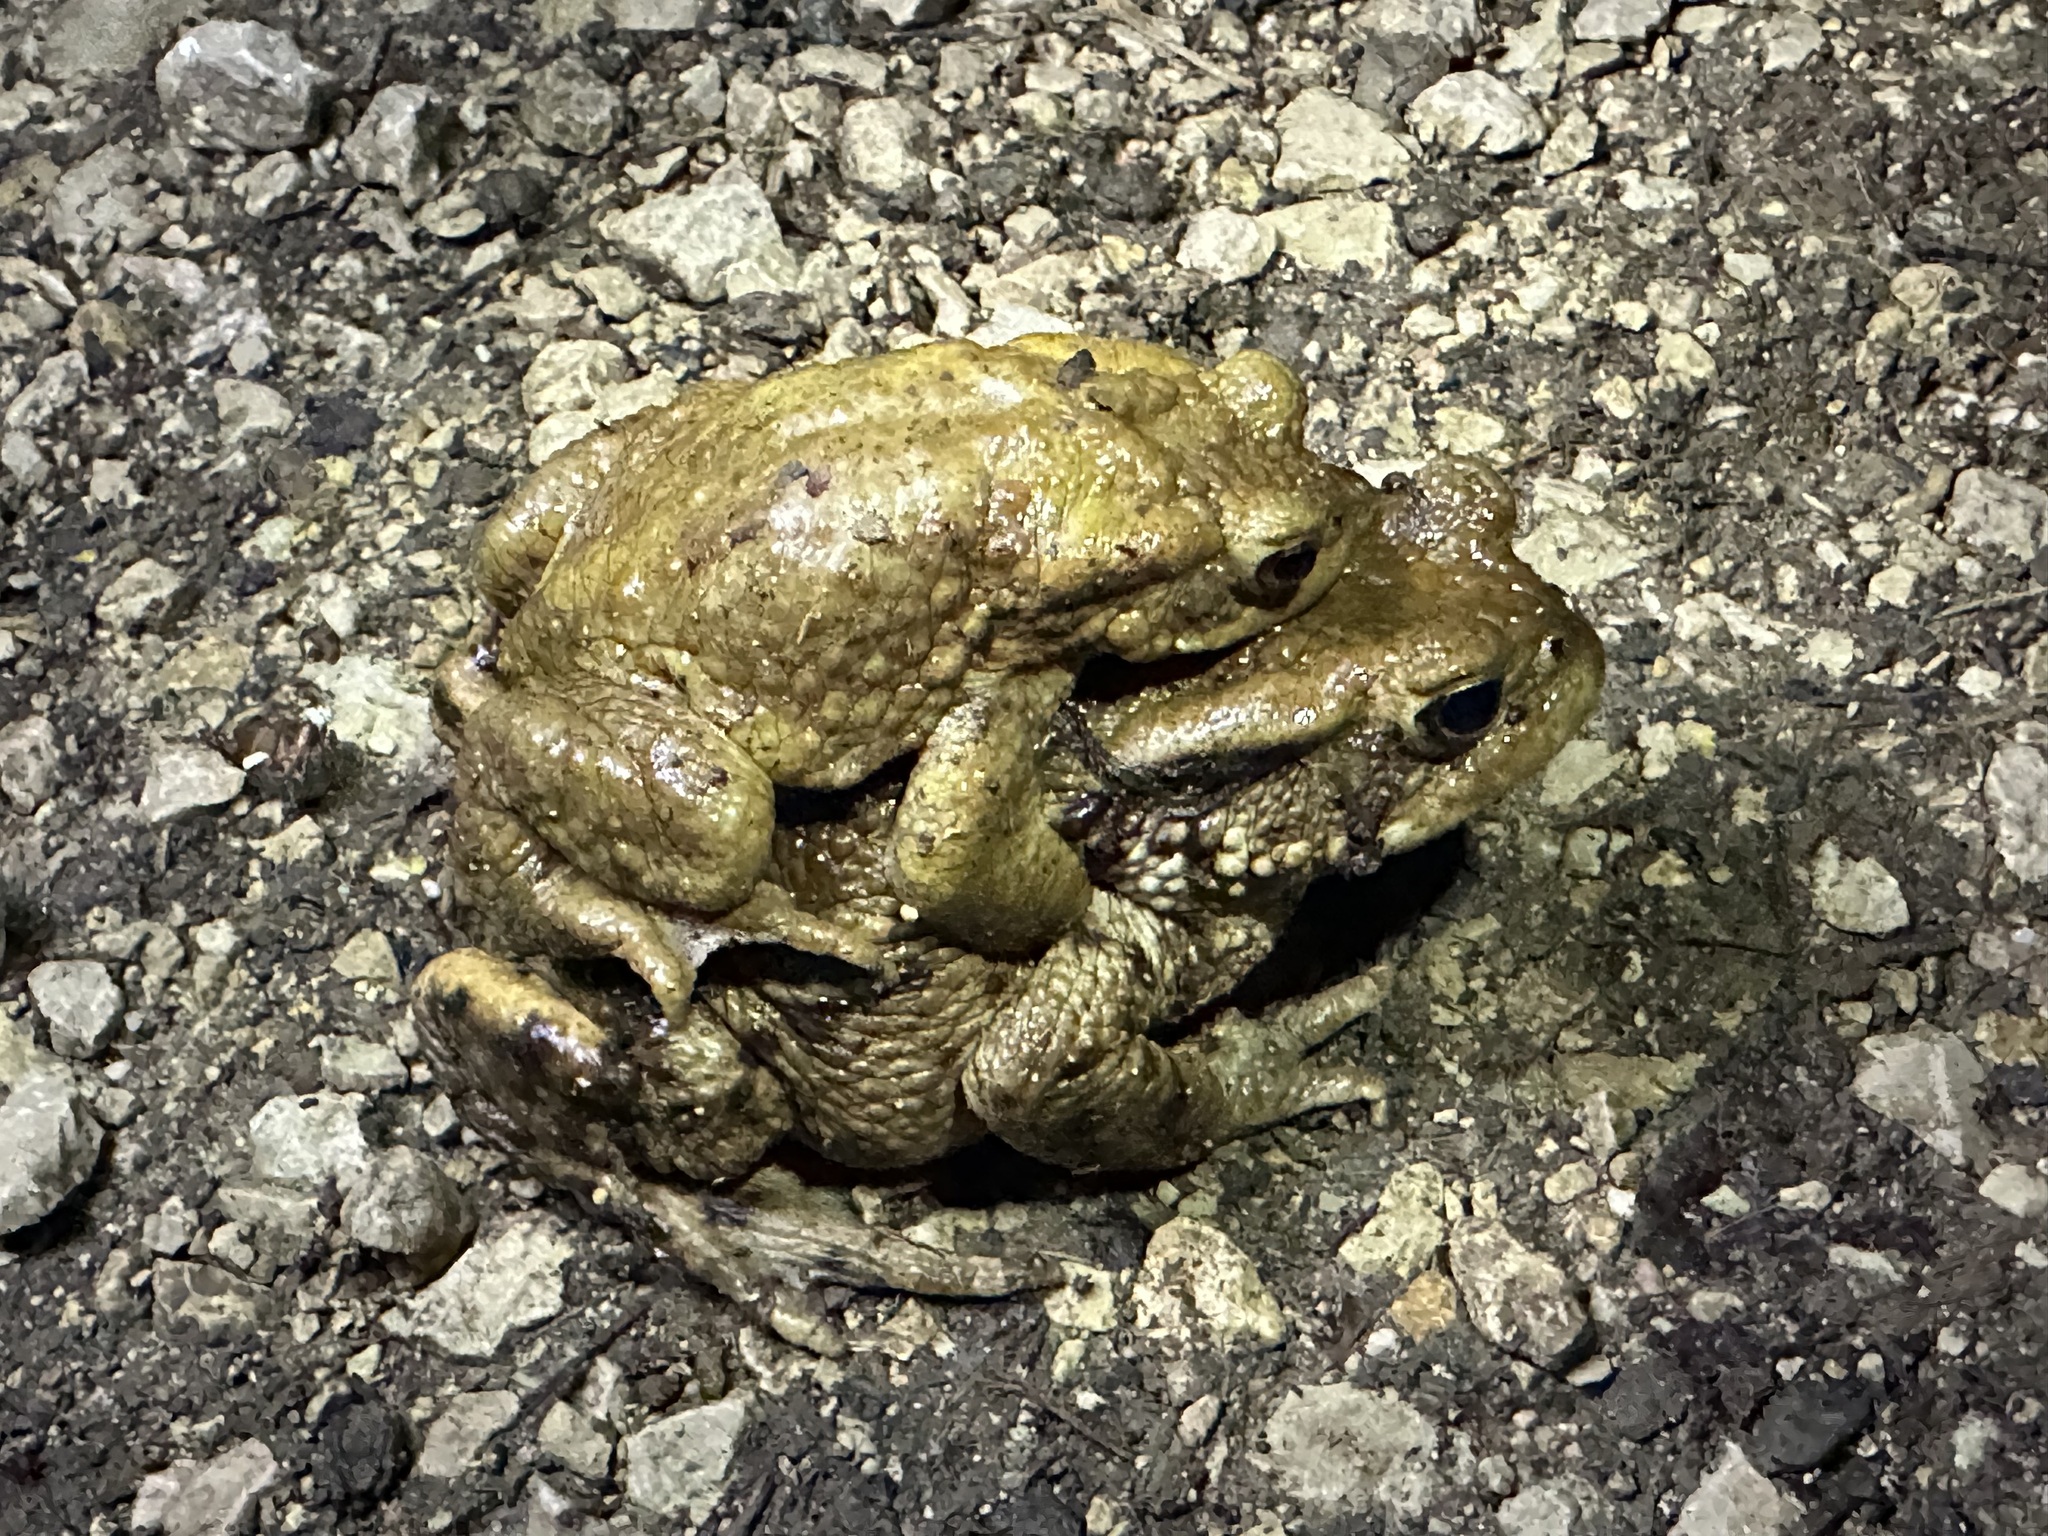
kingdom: Animalia
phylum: Chordata
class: Amphibia
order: Anura
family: Bufonidae
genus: Bufo
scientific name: Bufo bufo
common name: Common toad
